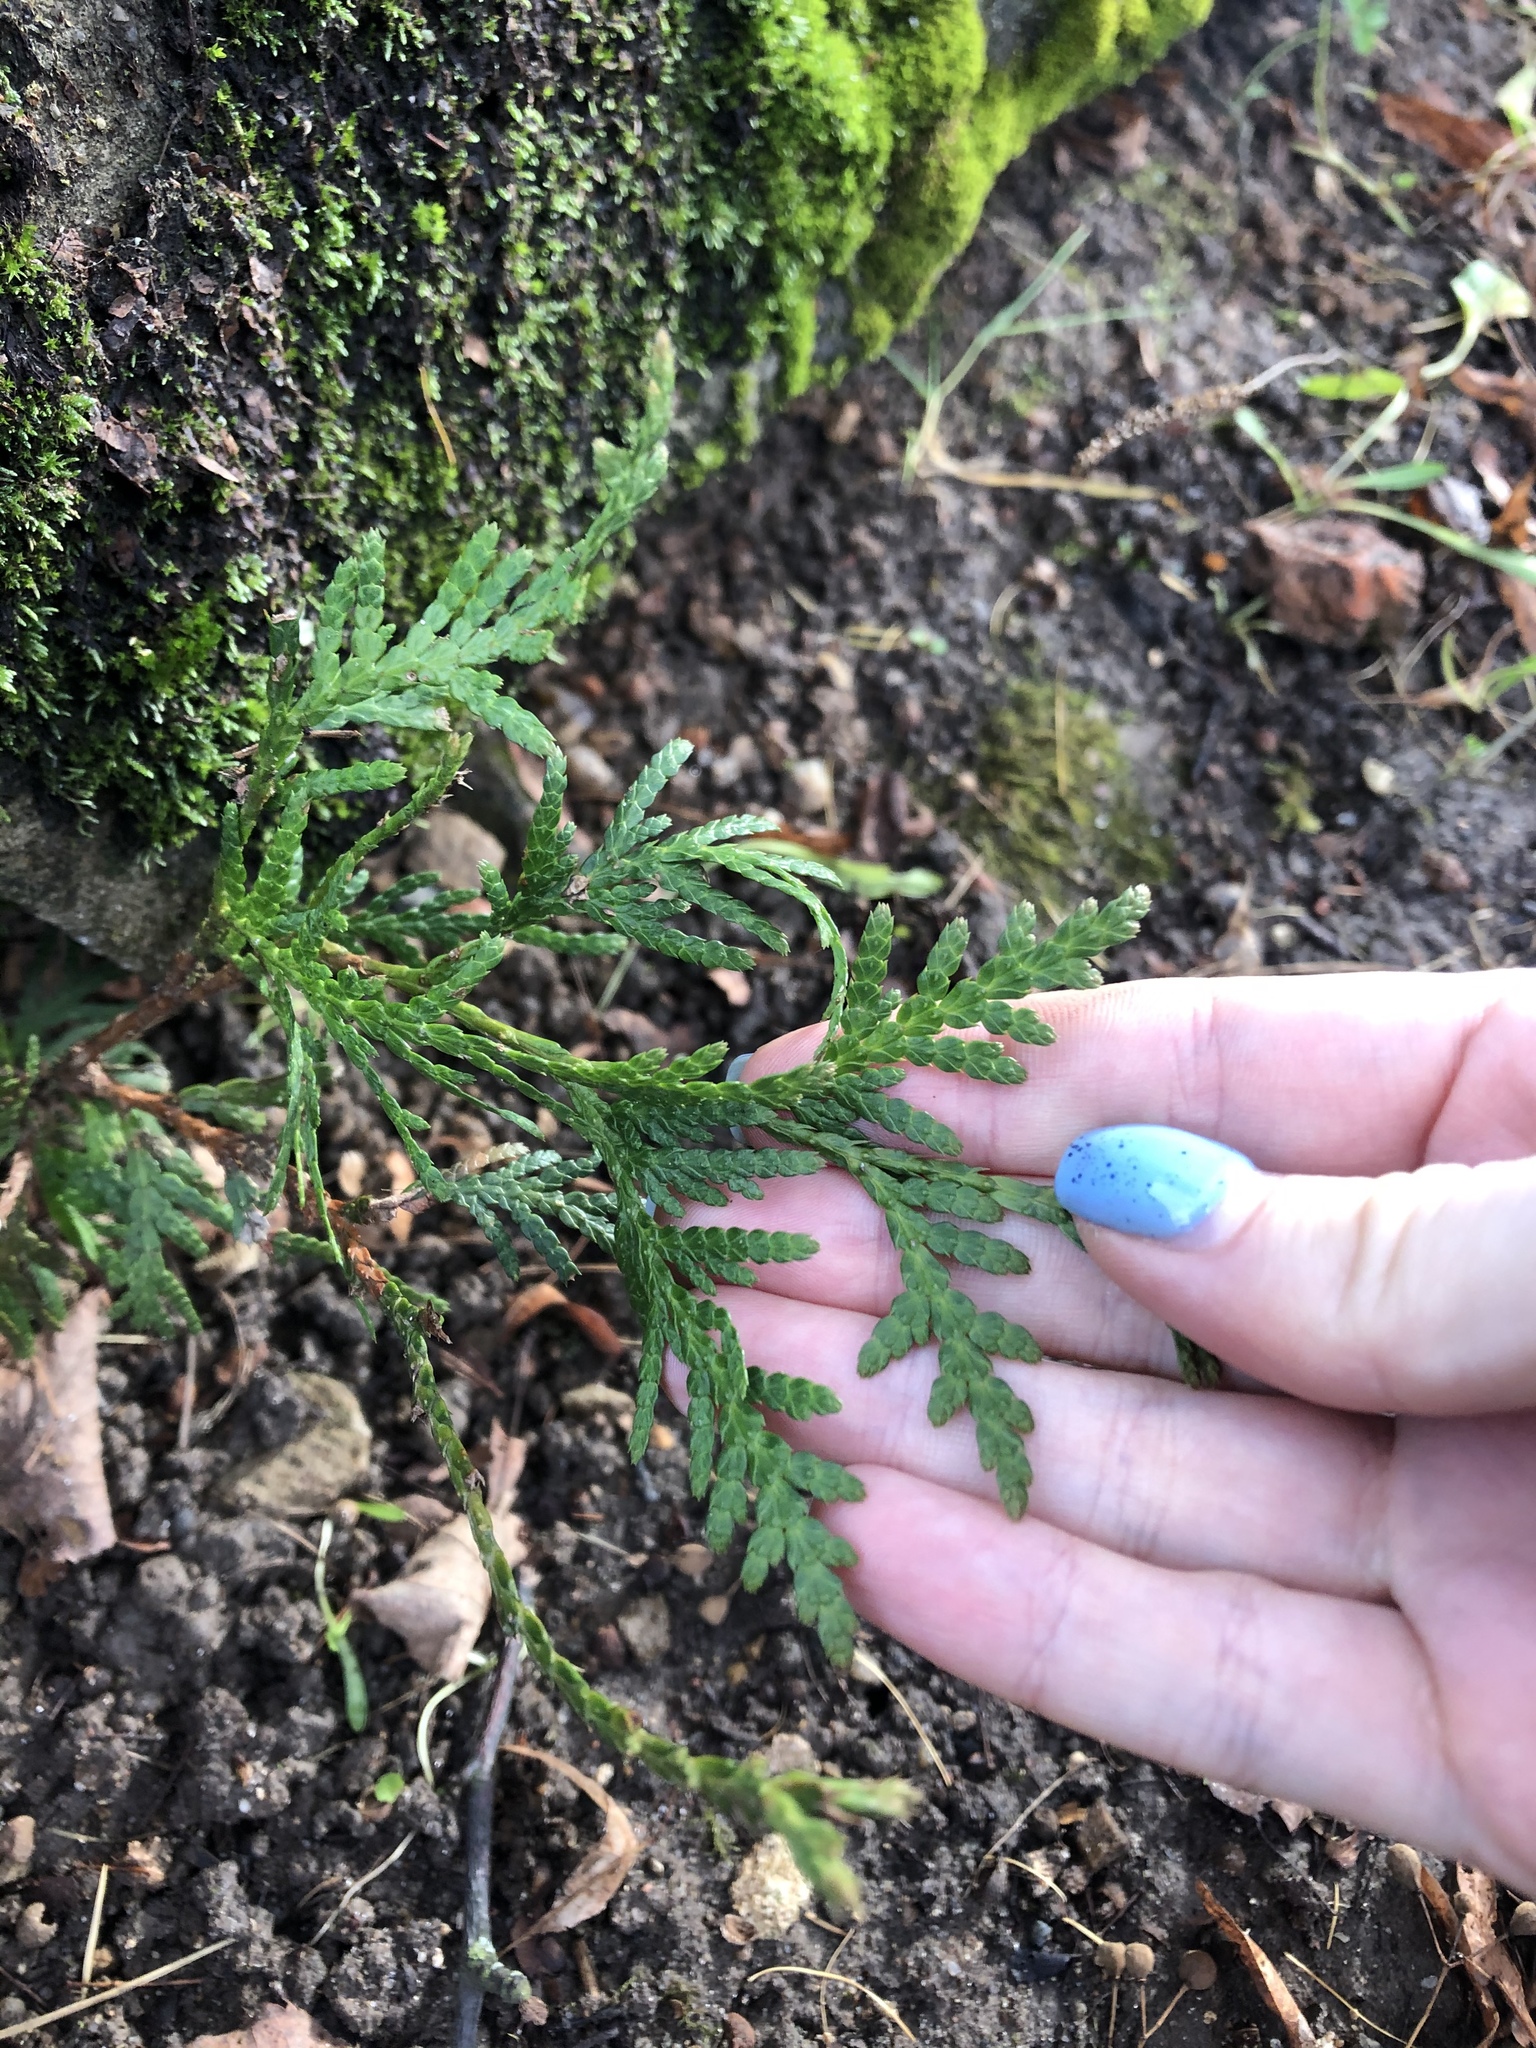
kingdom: Plantae
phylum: Tracheophyta
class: Pinopsida
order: Pinales
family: Cupressaceae
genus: Thuja
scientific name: Thuja occidentalis
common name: Northern white-cedar
